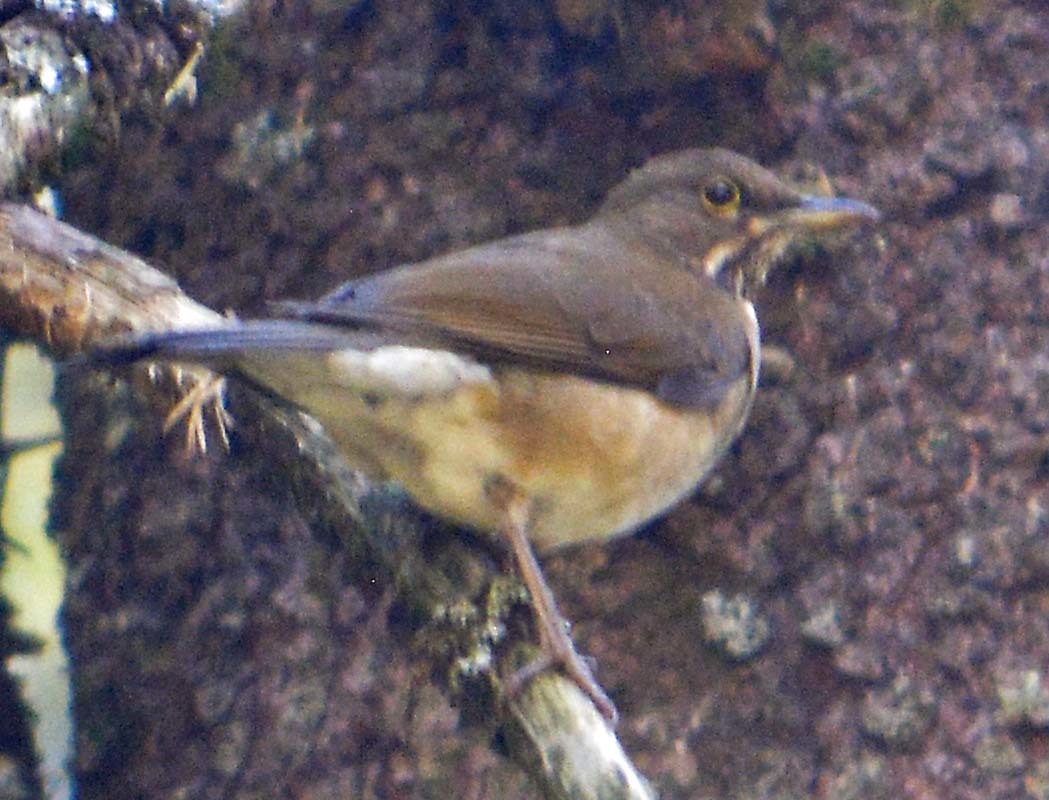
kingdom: Animalia
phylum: Chordata
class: Aves
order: Passeriformes
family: Turdidae
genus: Turdus
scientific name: Turdus assimilis
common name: White-throated thrush
